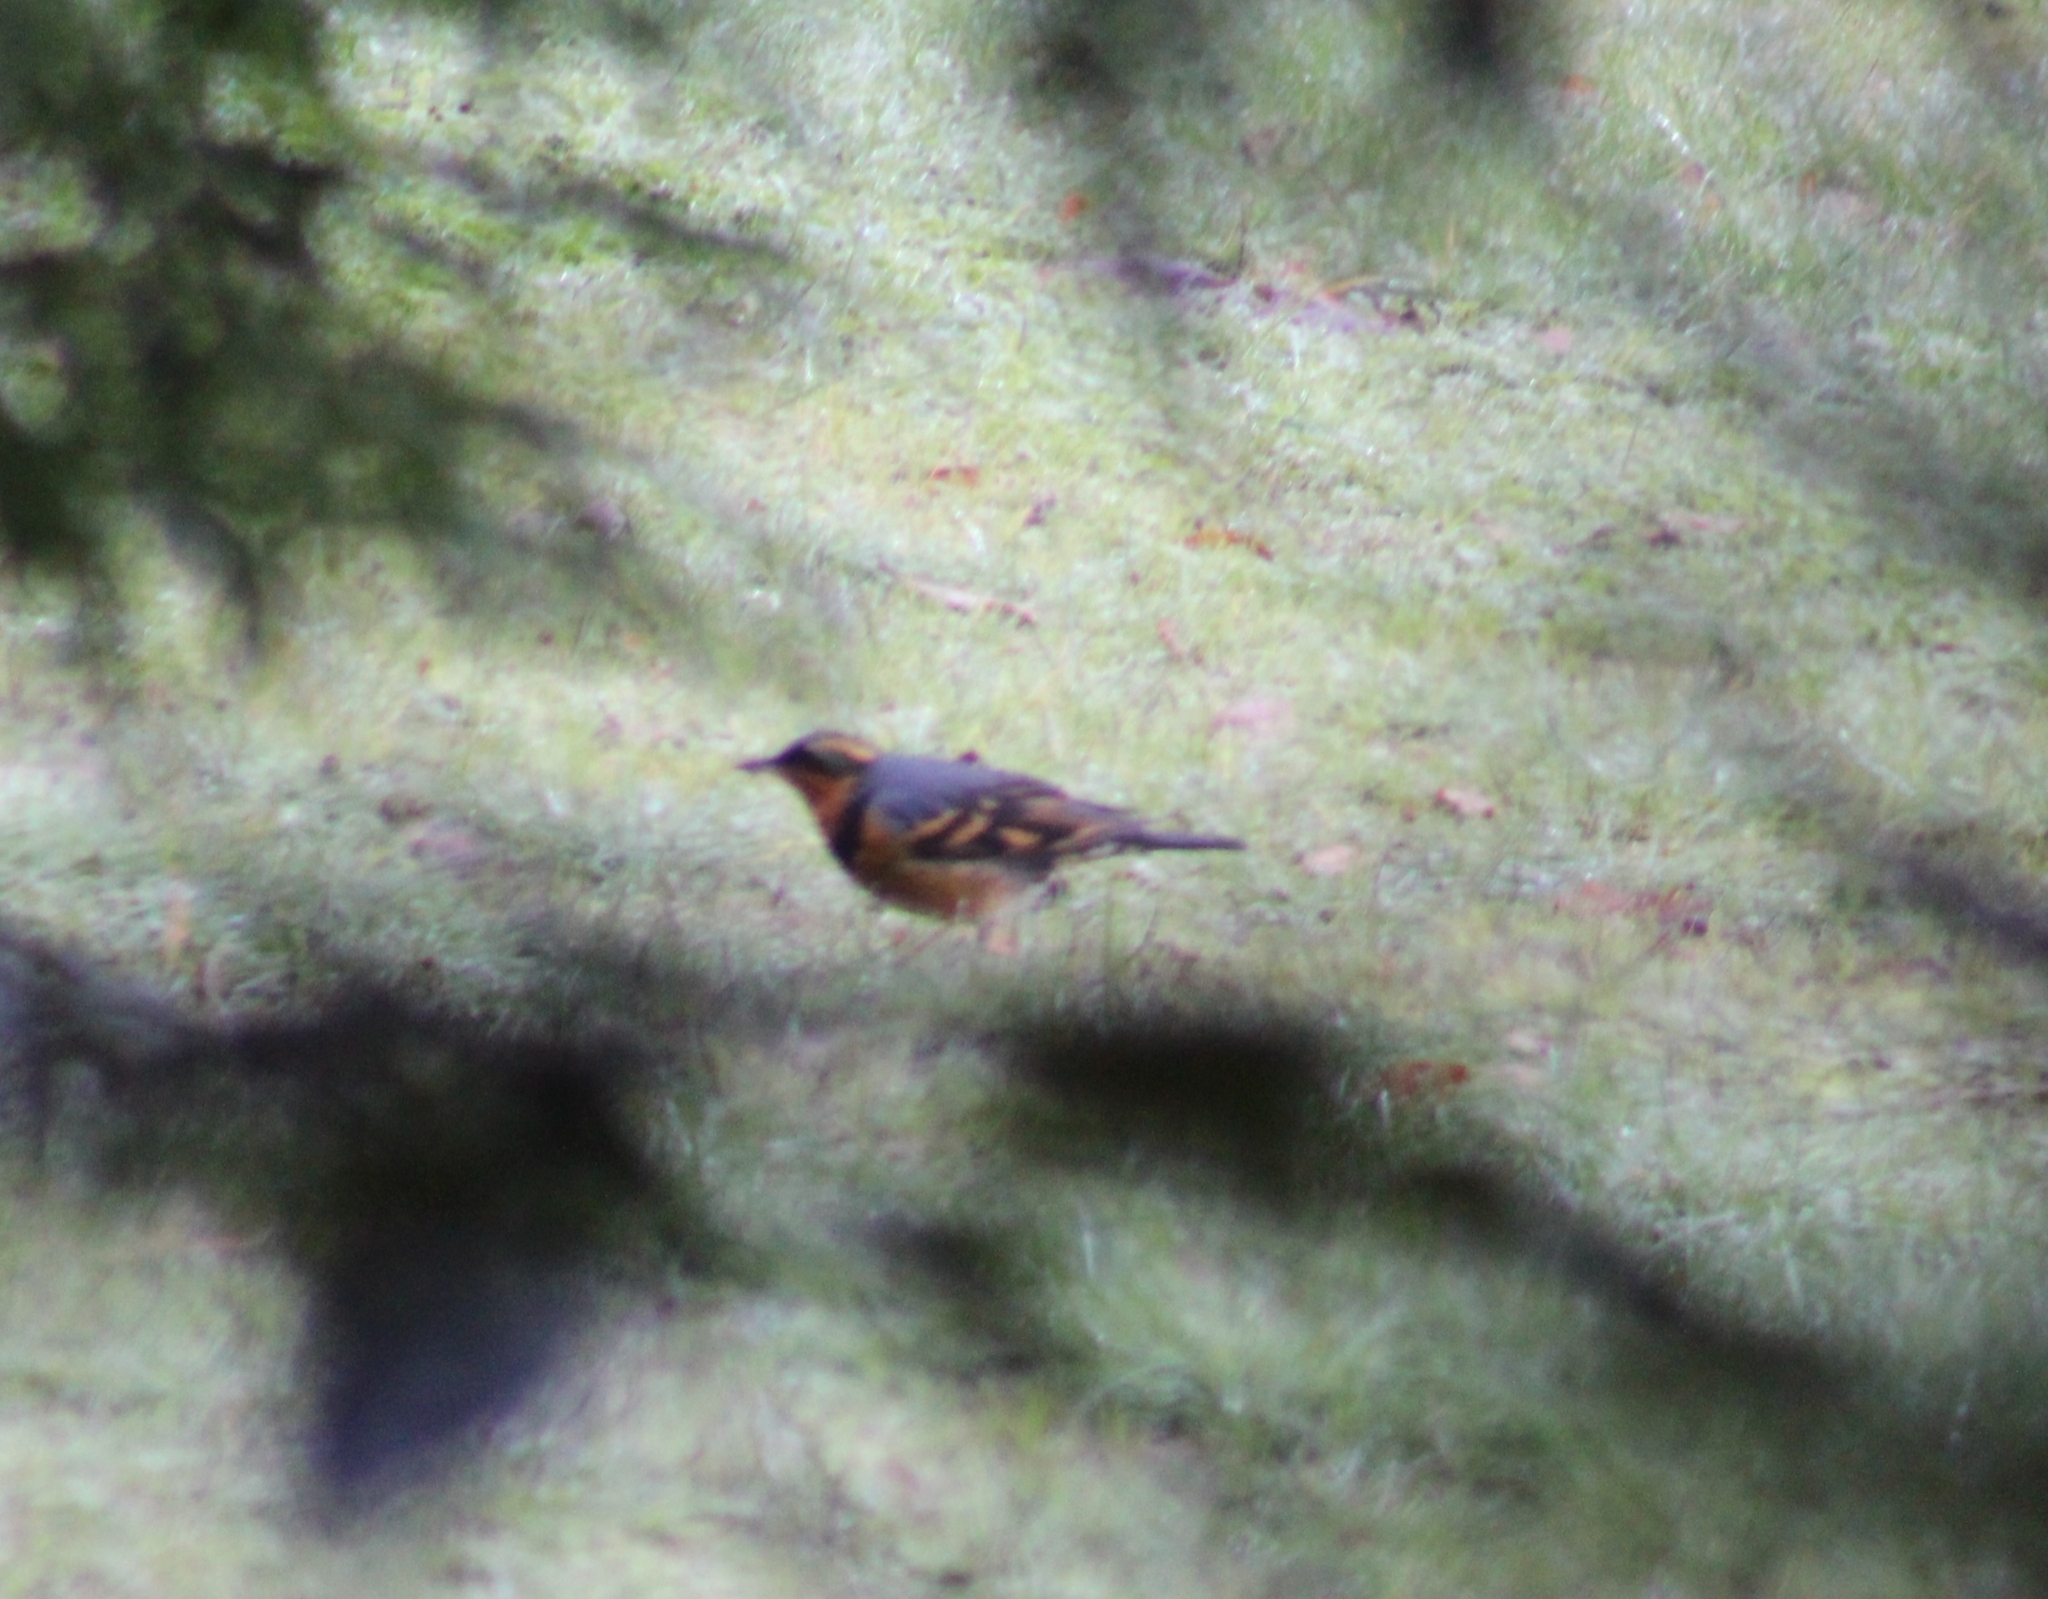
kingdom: Animalia
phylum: Chordata
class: Aves
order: Passeriformes
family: Turdidae
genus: Ixoreus
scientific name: Ixoreus naevius
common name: Varied thrush
